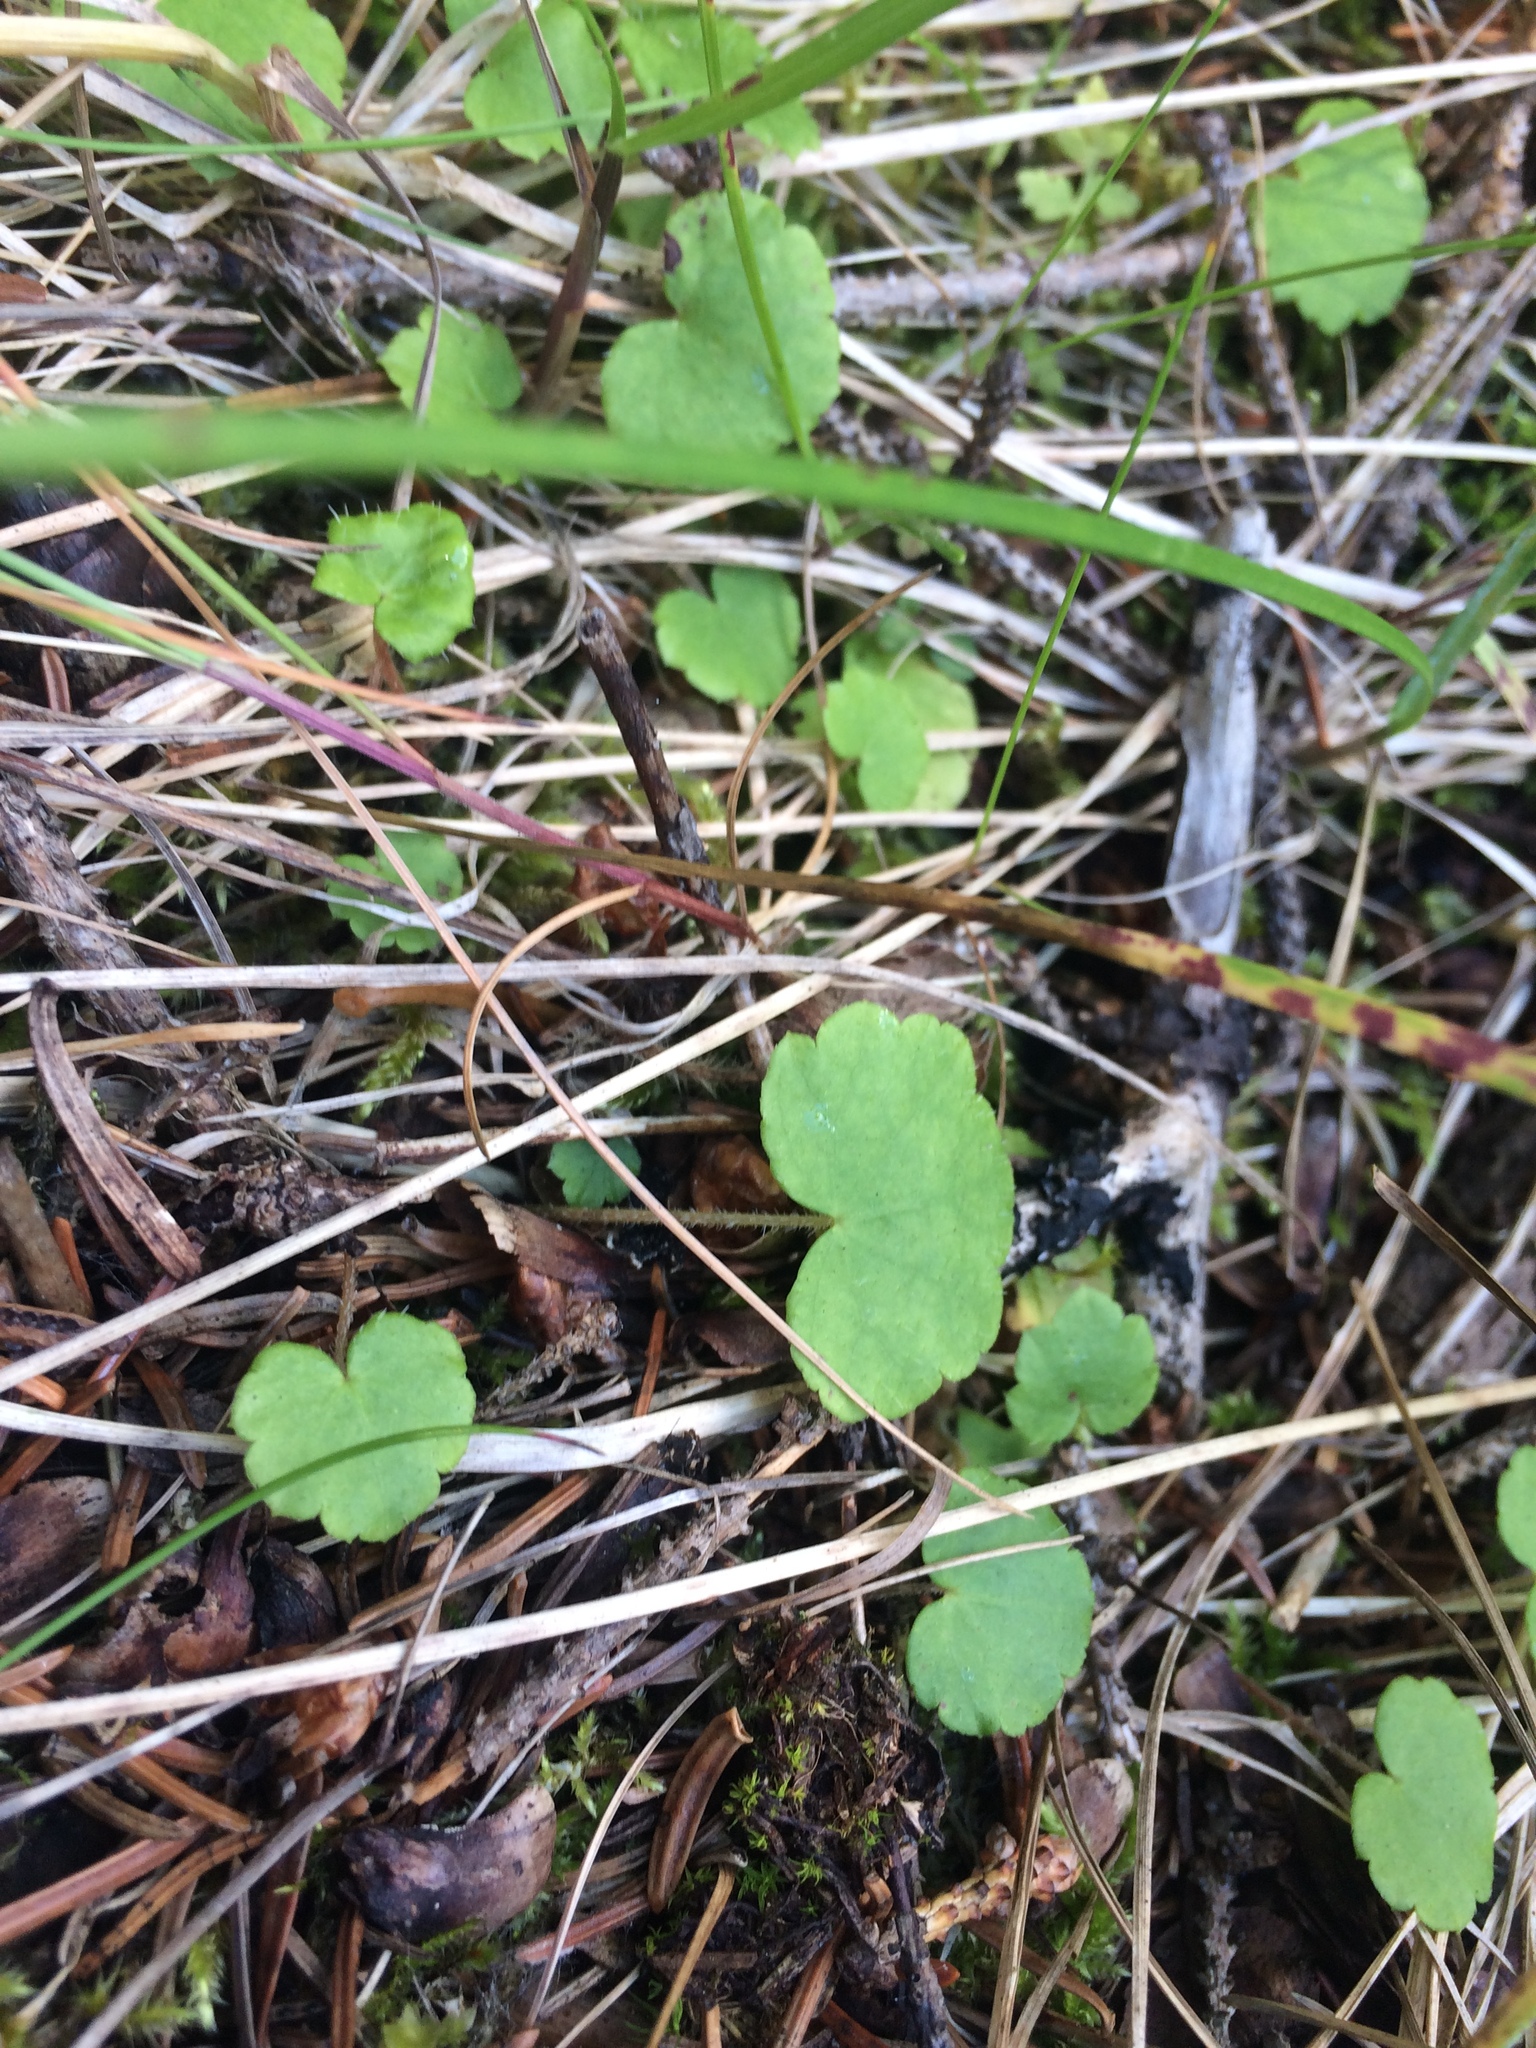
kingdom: Plantae
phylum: Tracheophyta
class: Magnoliopsida
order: Saxifragales
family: Saxifragaceae
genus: Mitella
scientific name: Mitella nuda
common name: Bare-stemmed bishop's-cap
